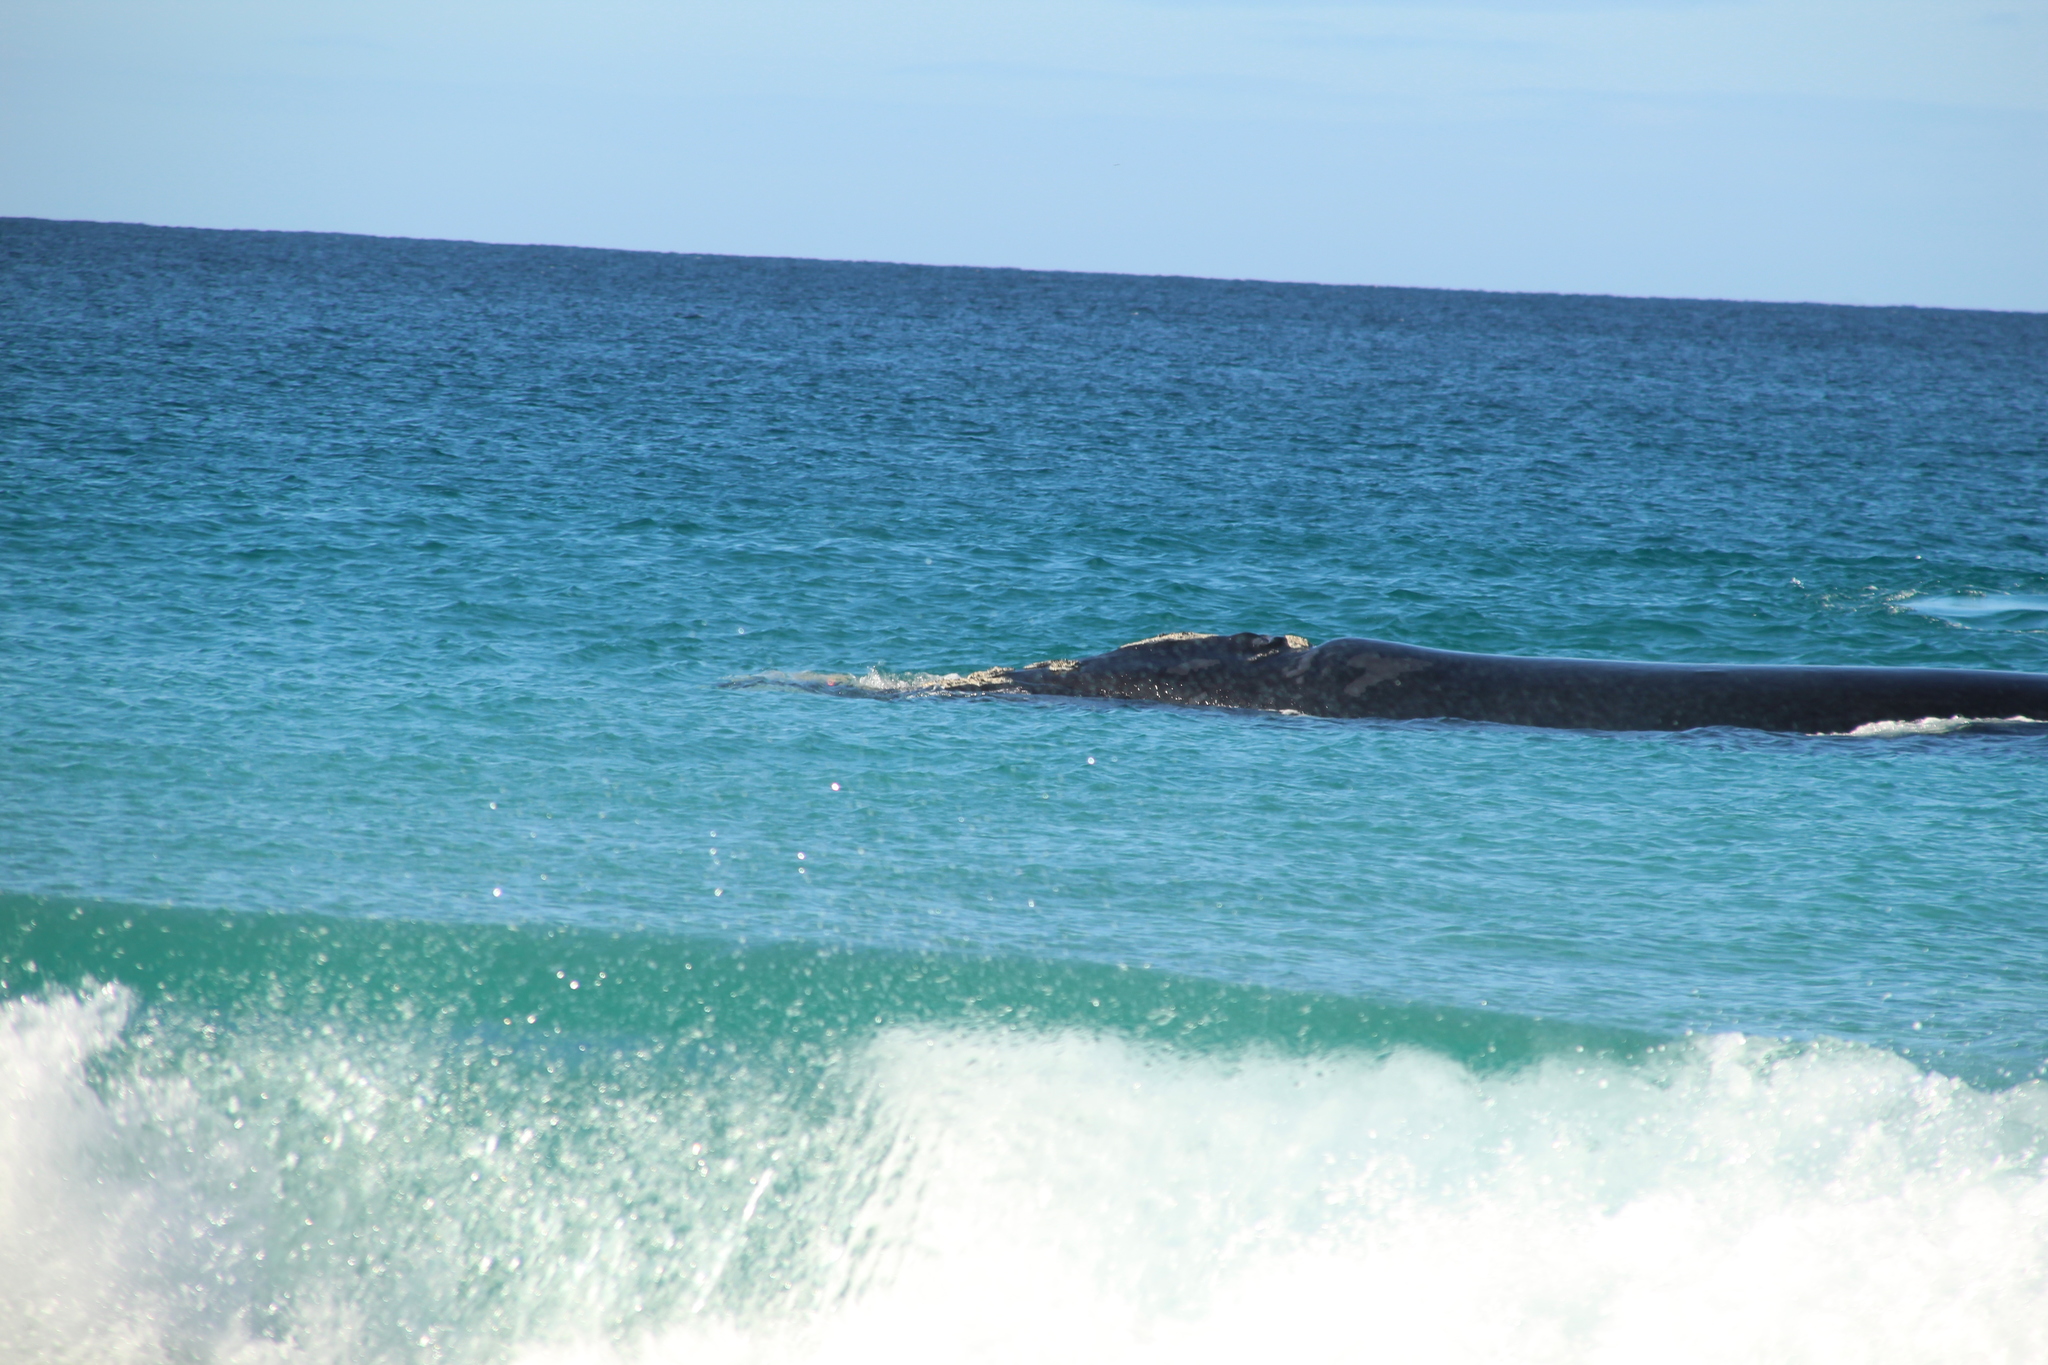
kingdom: Animalia
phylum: Chordata
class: Mammalia
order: Cetacea
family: Balaenidae
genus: Eubalaena
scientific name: Eubalaena australis
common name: Southern right whale
